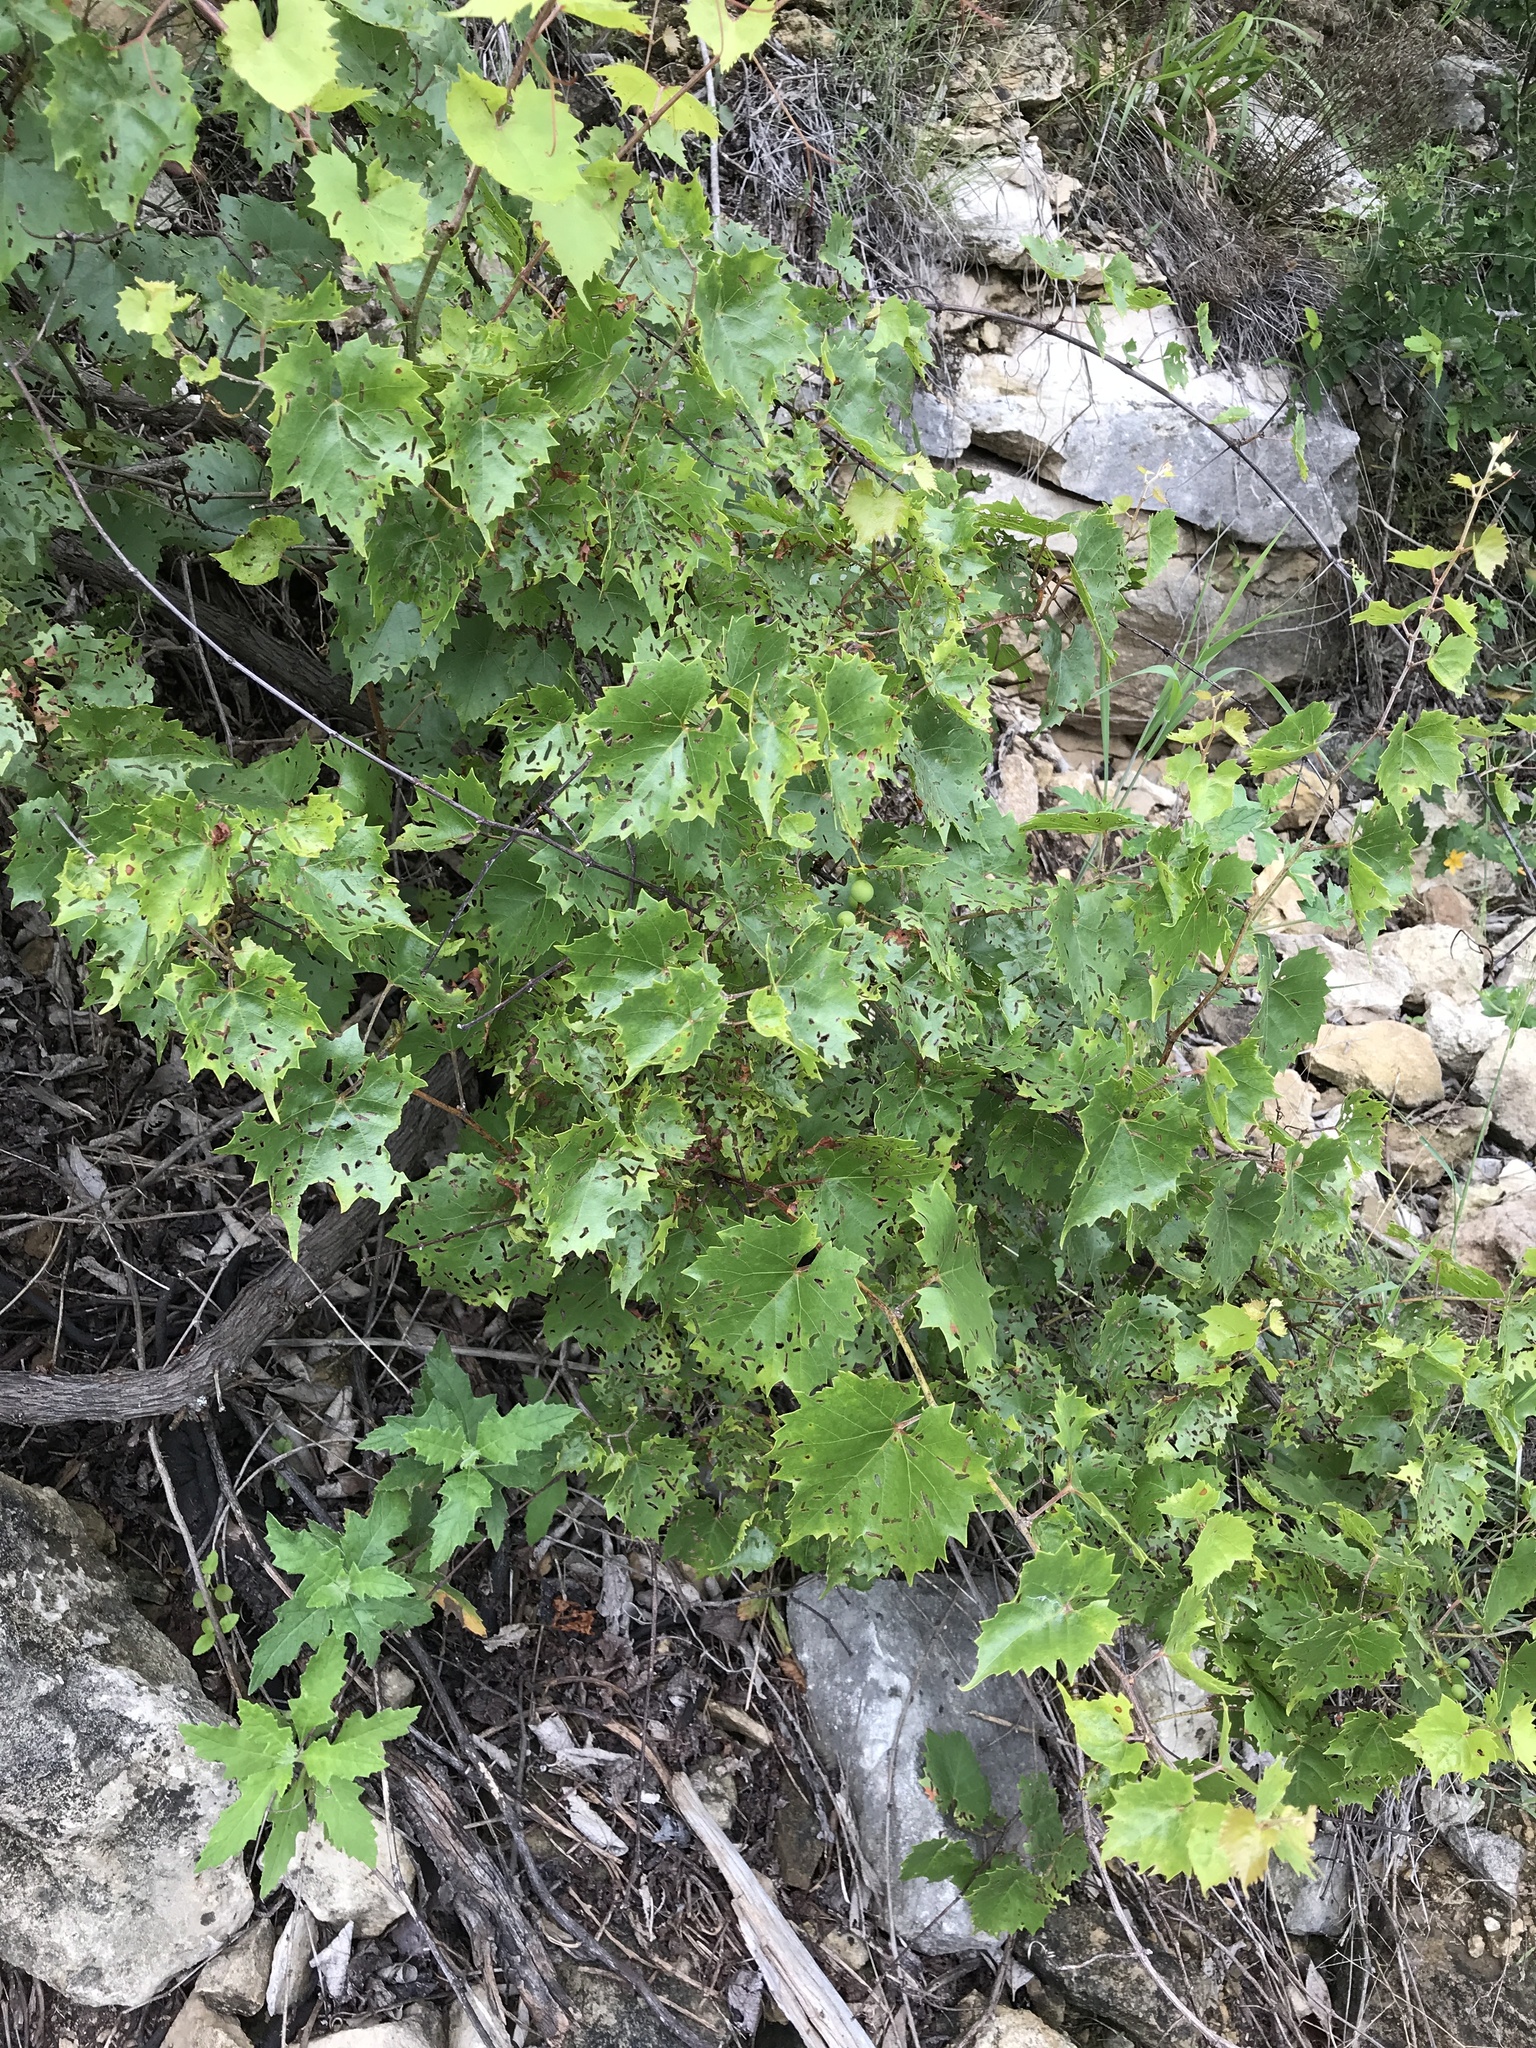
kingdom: Plantae
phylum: Tracheophyta
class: Magnoliopsida
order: Vitales
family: Vitaceae
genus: Vitis
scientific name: Vitis monticola
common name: Mountain grape
